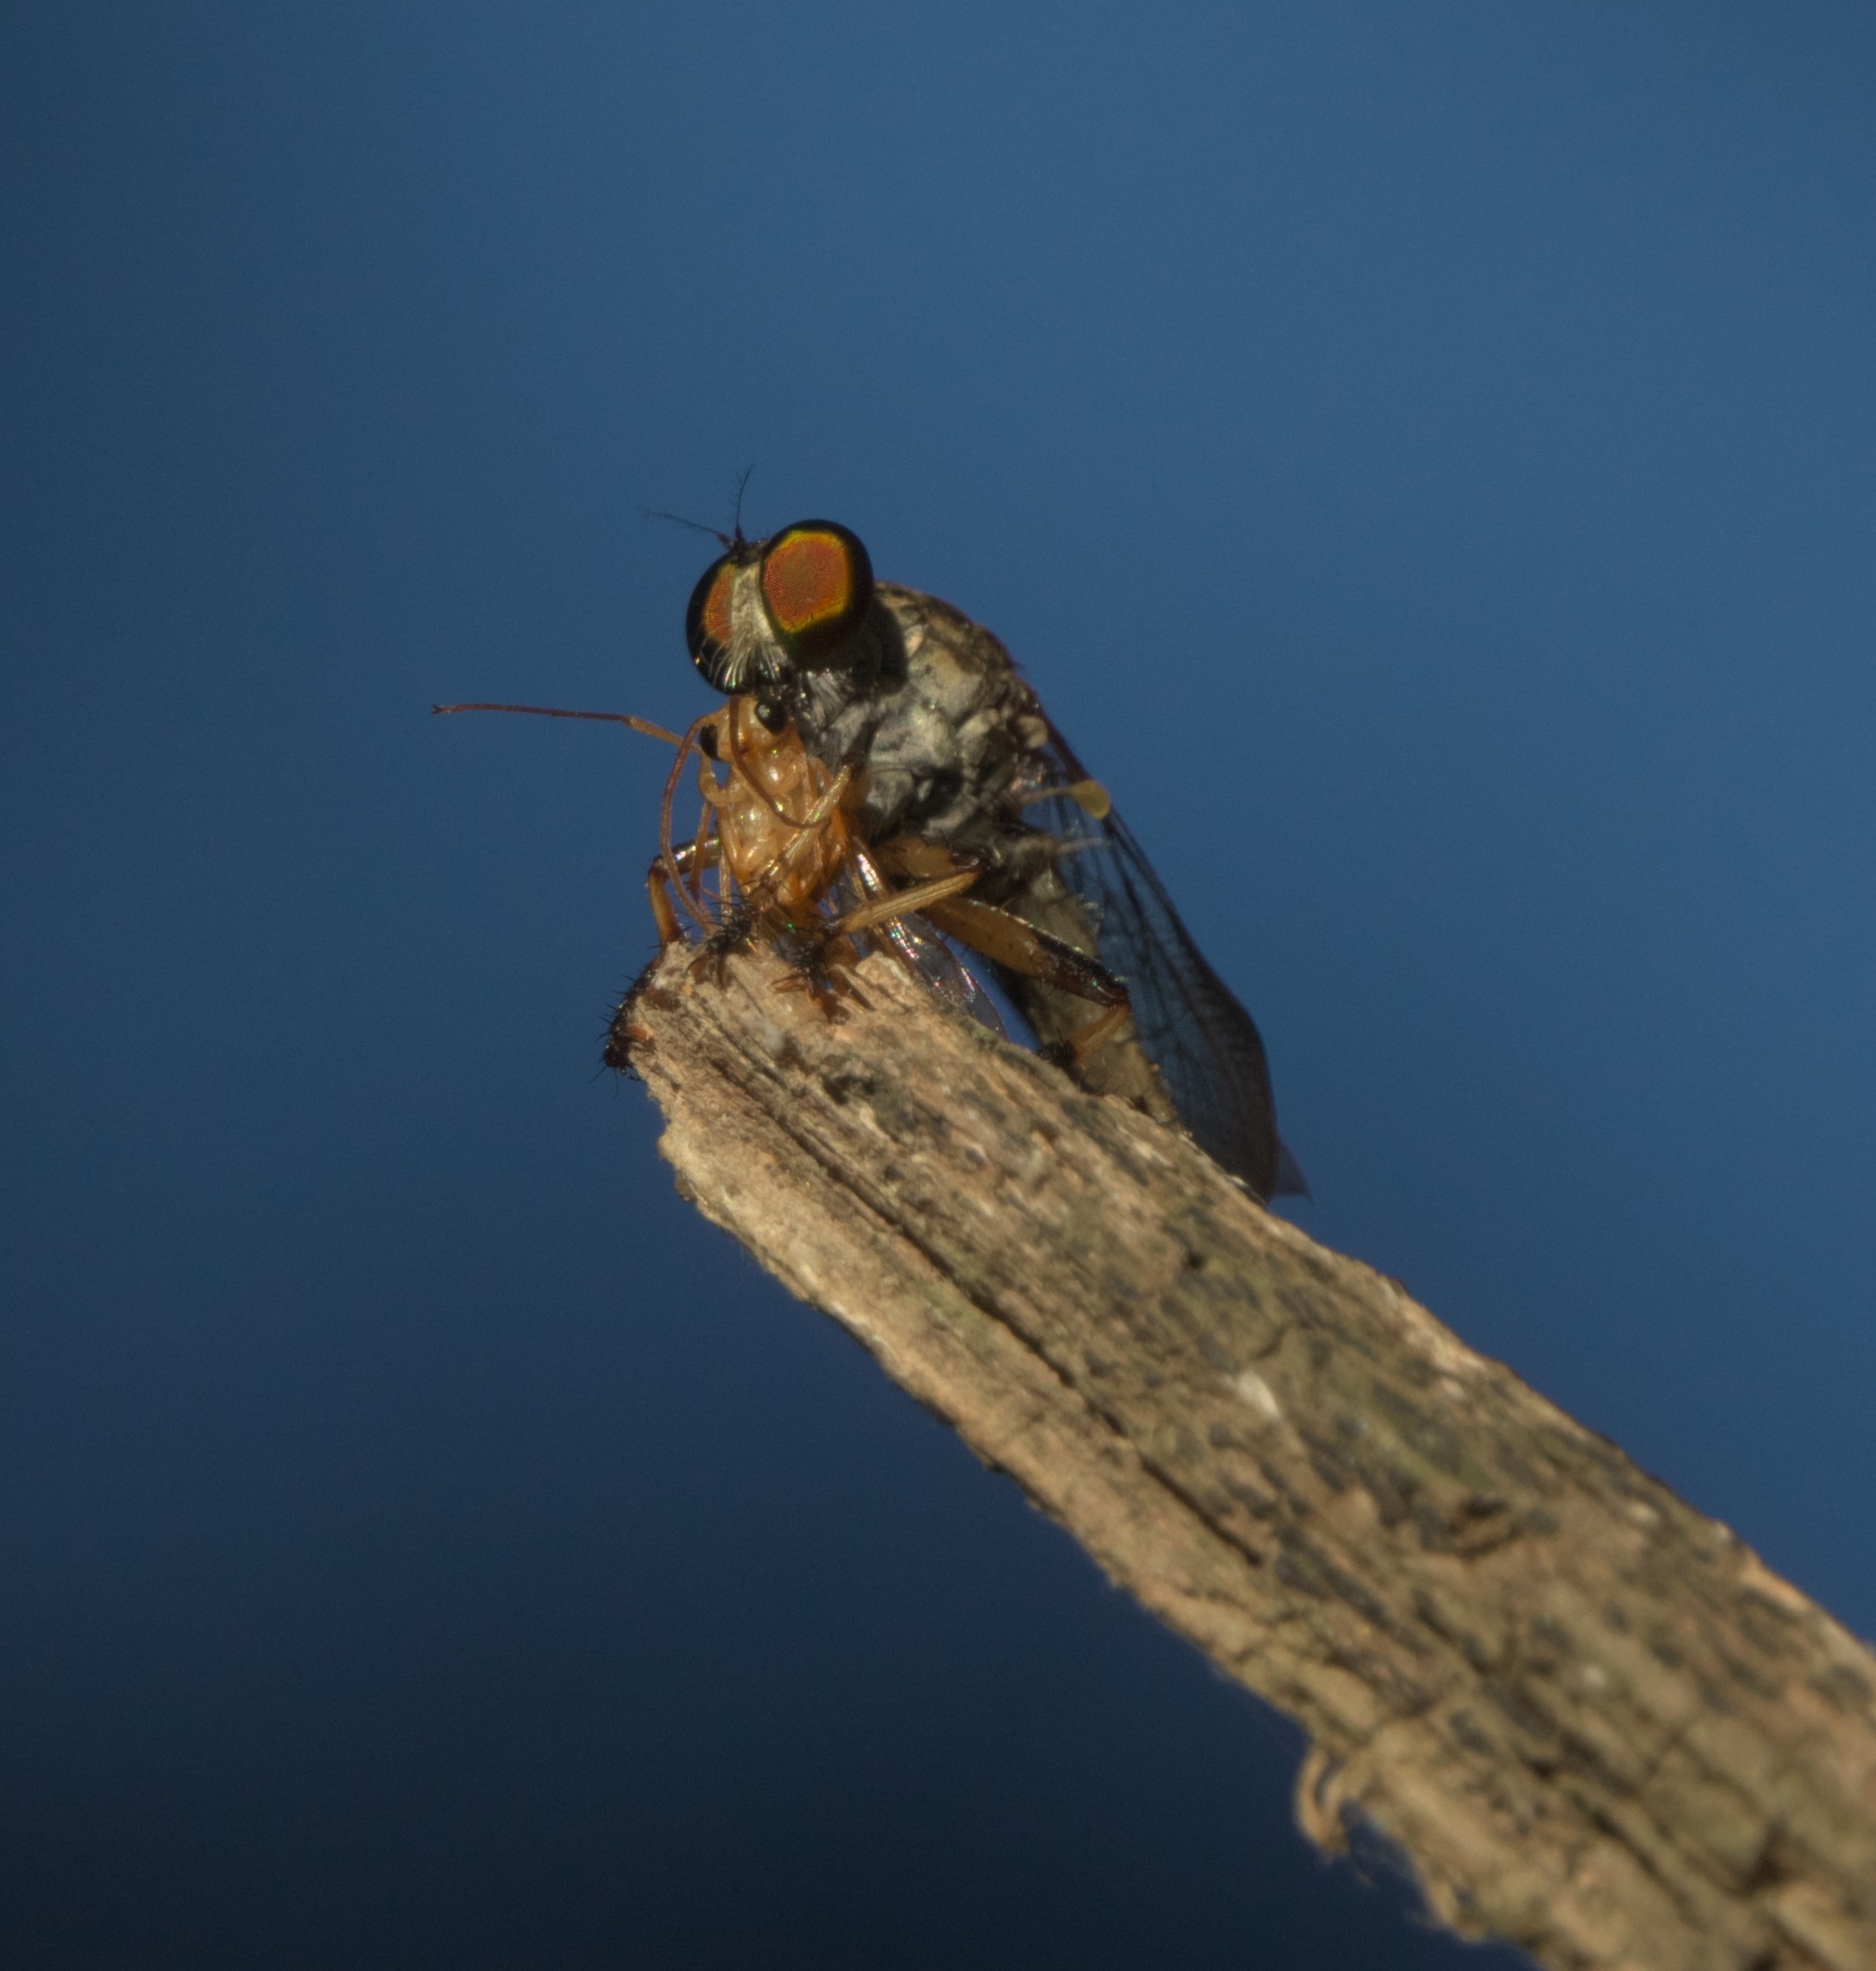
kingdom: Animalia
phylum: Arthropoda
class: Insecta
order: Odonata
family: Libellulidae
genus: Celithemis
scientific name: Celithemis eponina
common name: Halloween pennant
